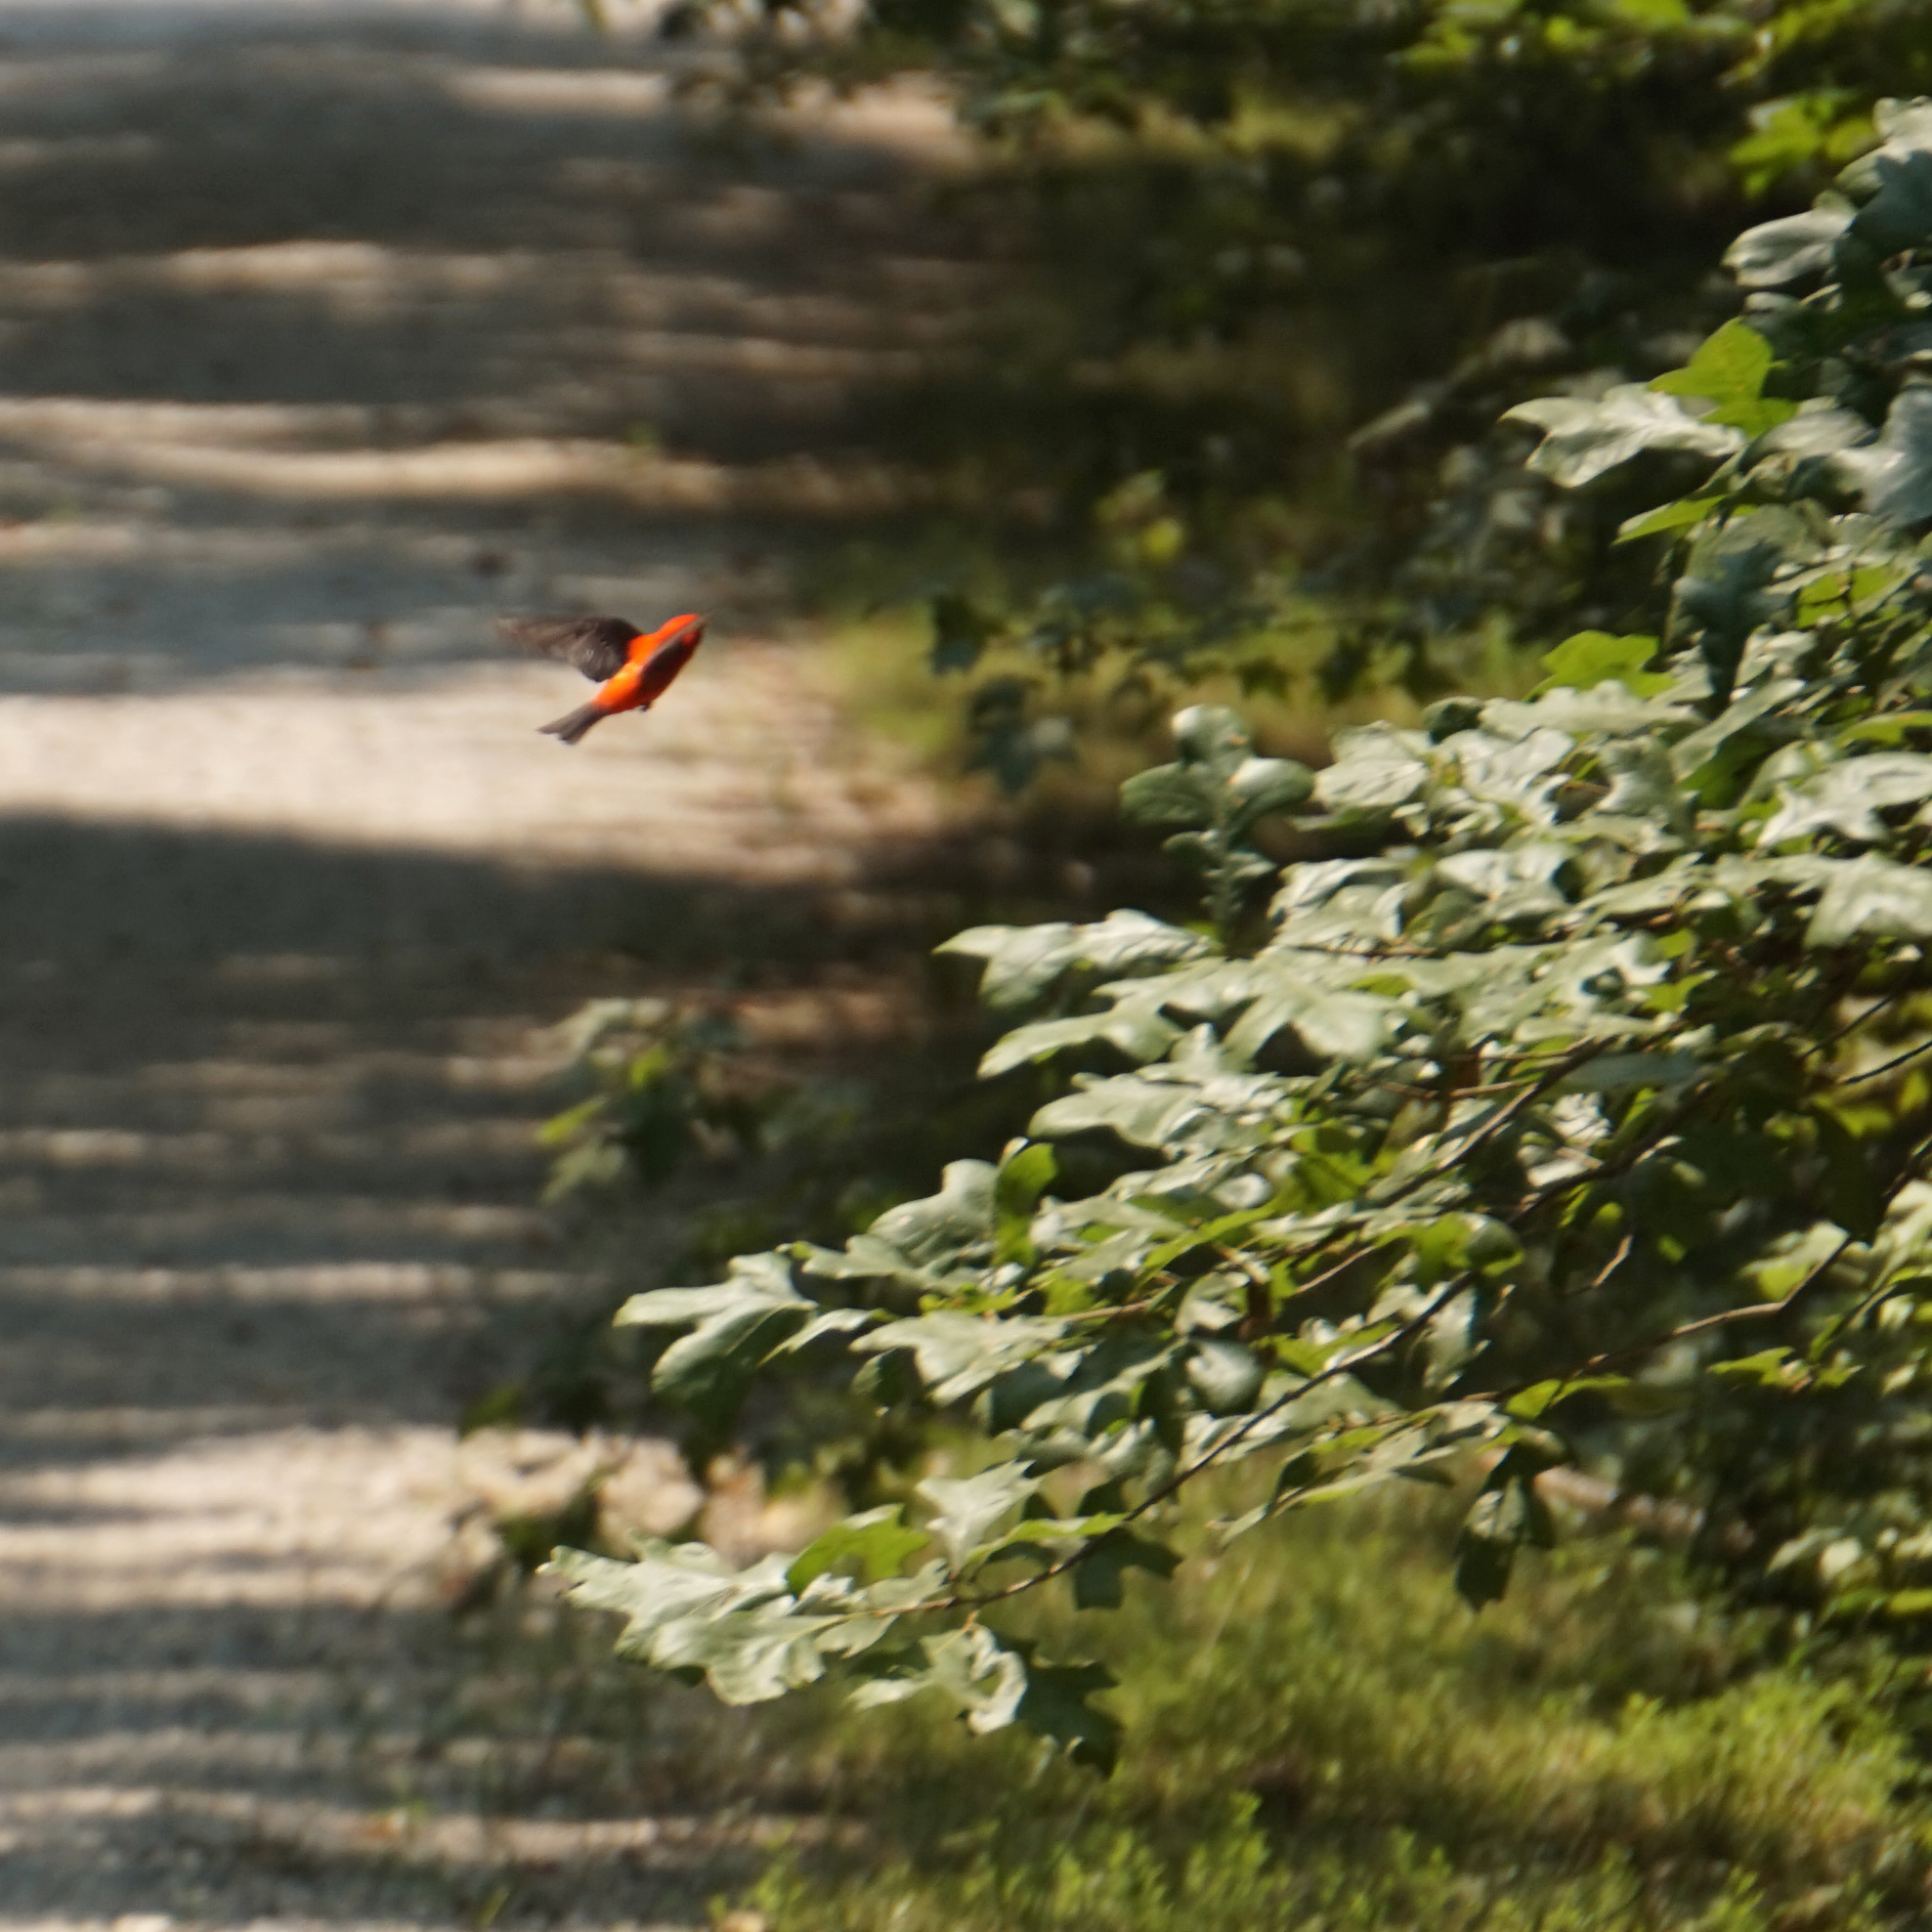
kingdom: Animalia
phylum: Chordata
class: Aves
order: Passeriformes
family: Cardinalidae
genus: Piranga
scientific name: Piranga olivacea
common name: Scarlet tanager
